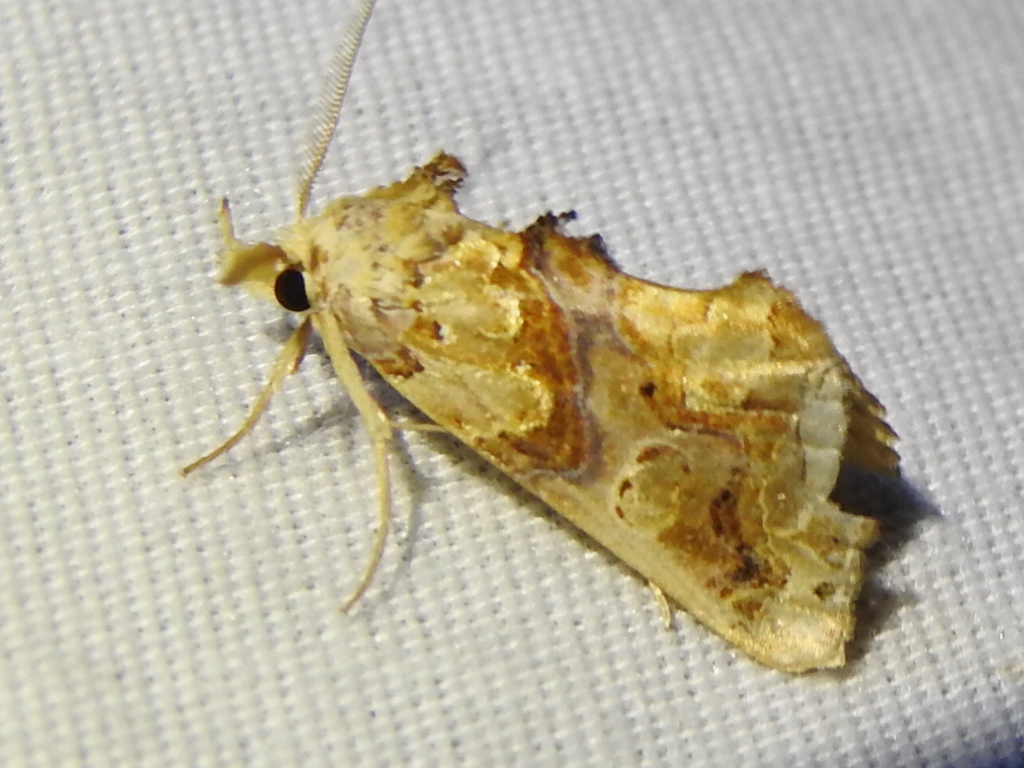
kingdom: Animalia
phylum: Arthropoda
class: Insecta
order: Lepidoptera
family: Erebidae
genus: Plusiodonta
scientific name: Plusiodonta compressipalpis
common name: Moonseed moth
